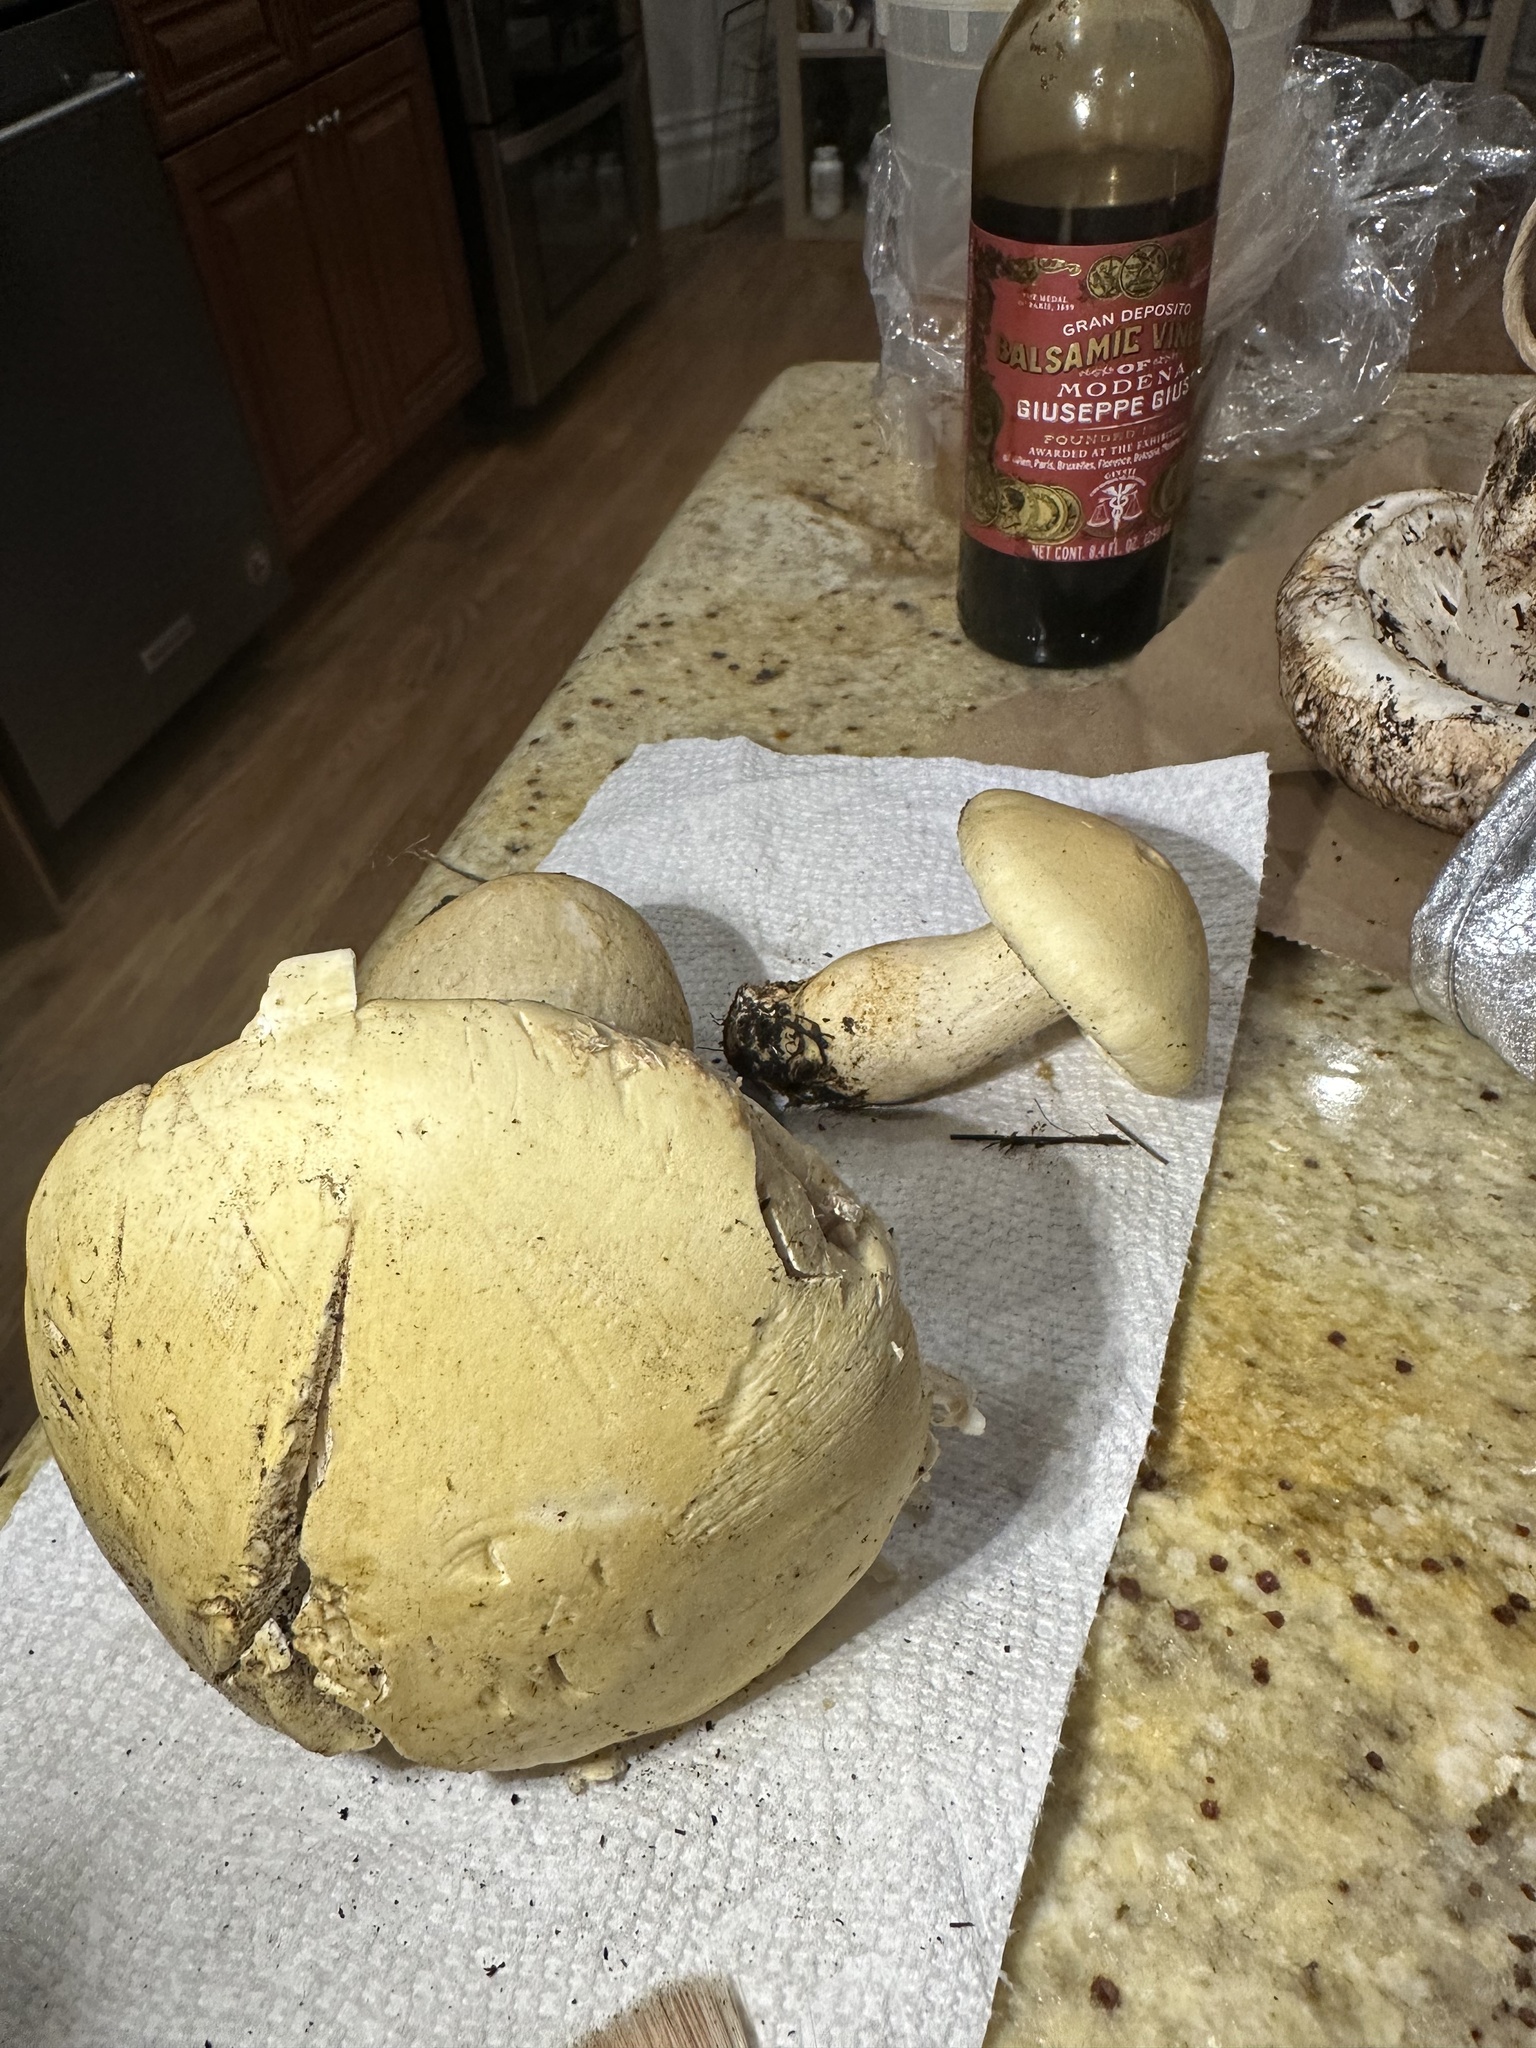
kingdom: Fungi
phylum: Basidiomycota
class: Agaricomycetes
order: Agaricales
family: Tricholomataceae
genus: Leucopaxillus
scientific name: Leucopaxillus albissimus
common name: Large white leucopax
